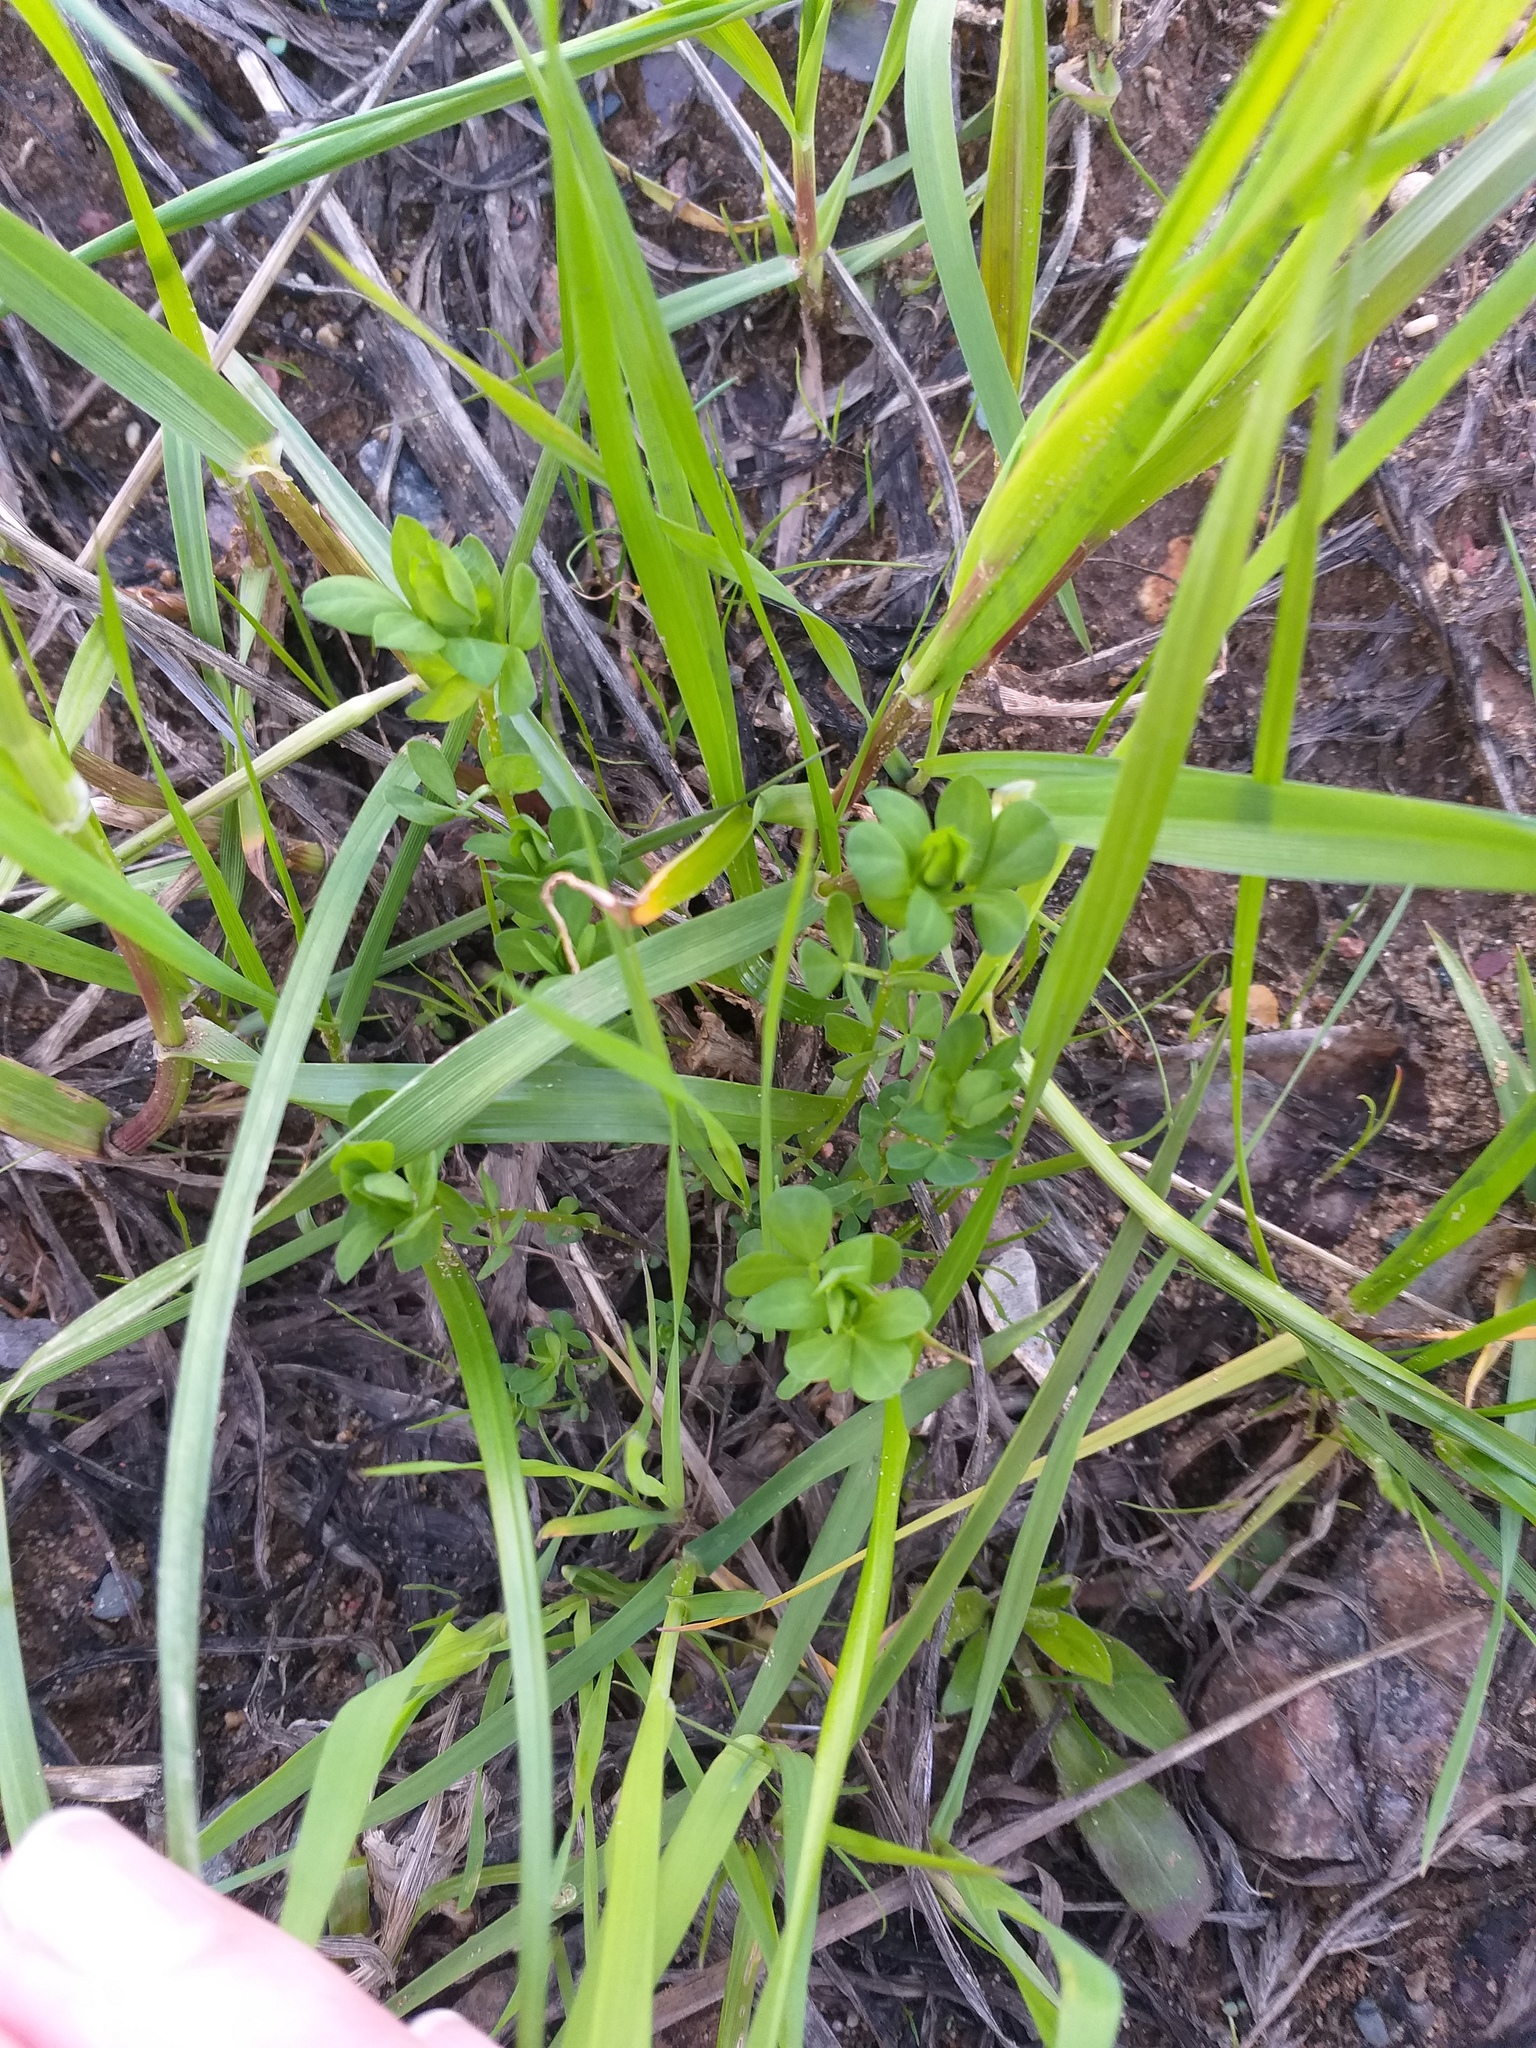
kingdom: Plantae
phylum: Tracheophyta
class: Magnoliopsida
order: Fabales
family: Fabaceae
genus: Lotus
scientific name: Lotus corniculatus
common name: Common bird's-foot-trefoil
